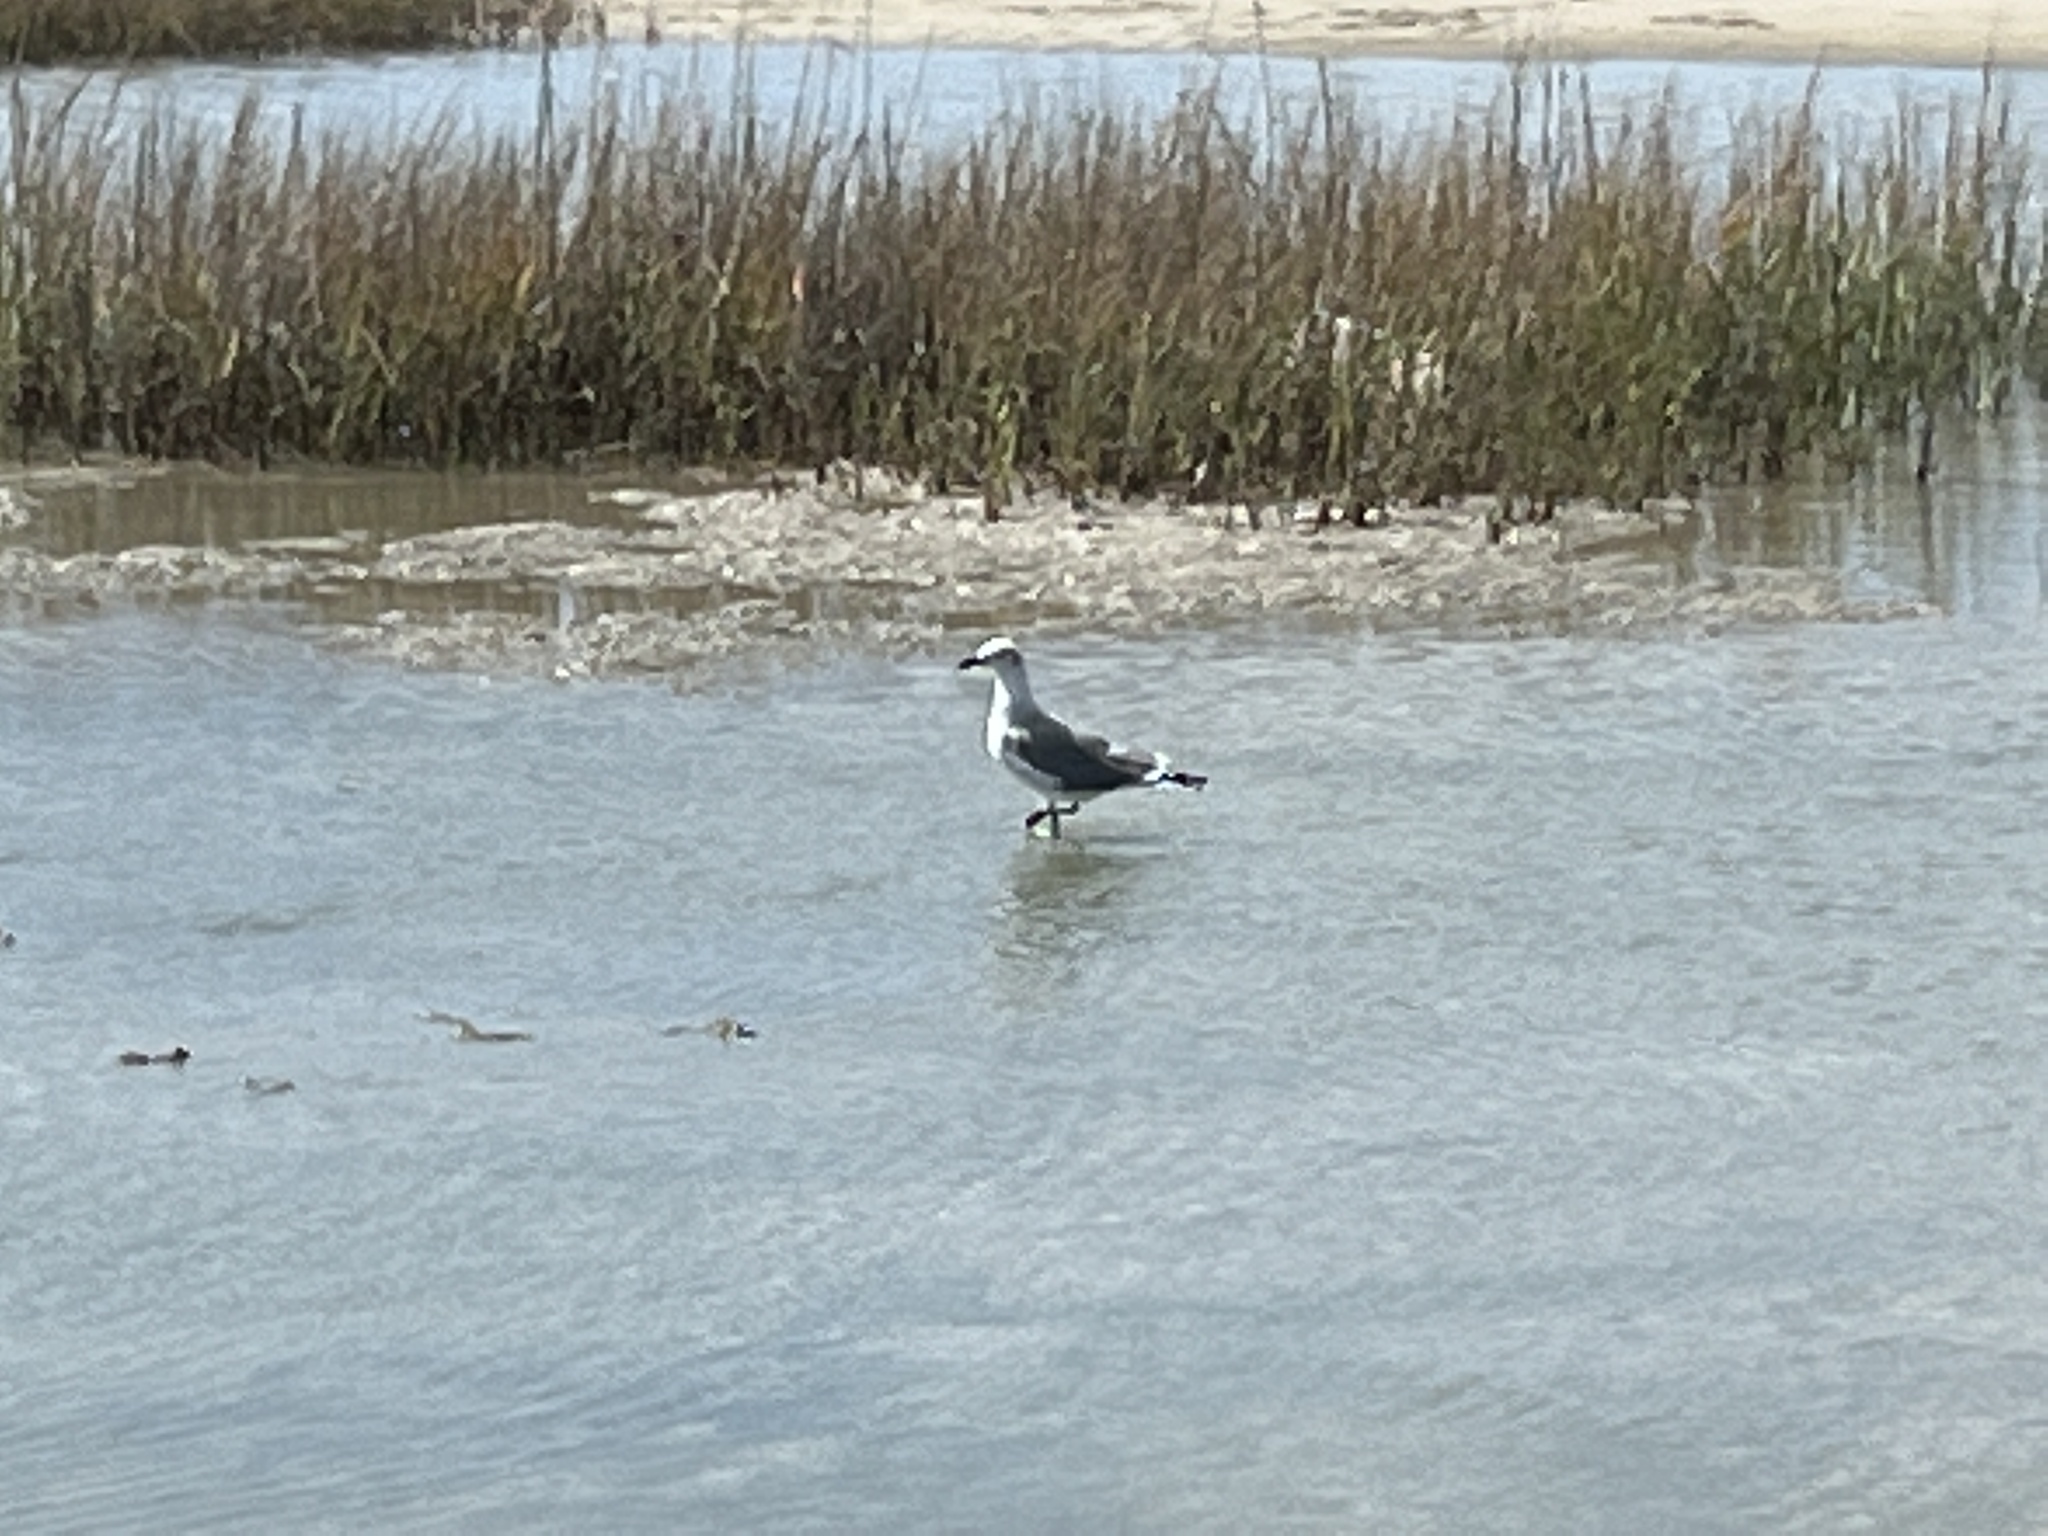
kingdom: Animalia
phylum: Chordata
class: Aves
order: Charadriiformes
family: Laridae
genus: Leucophaeus
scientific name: Leucophaeus atricilla
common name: Laughing gull
